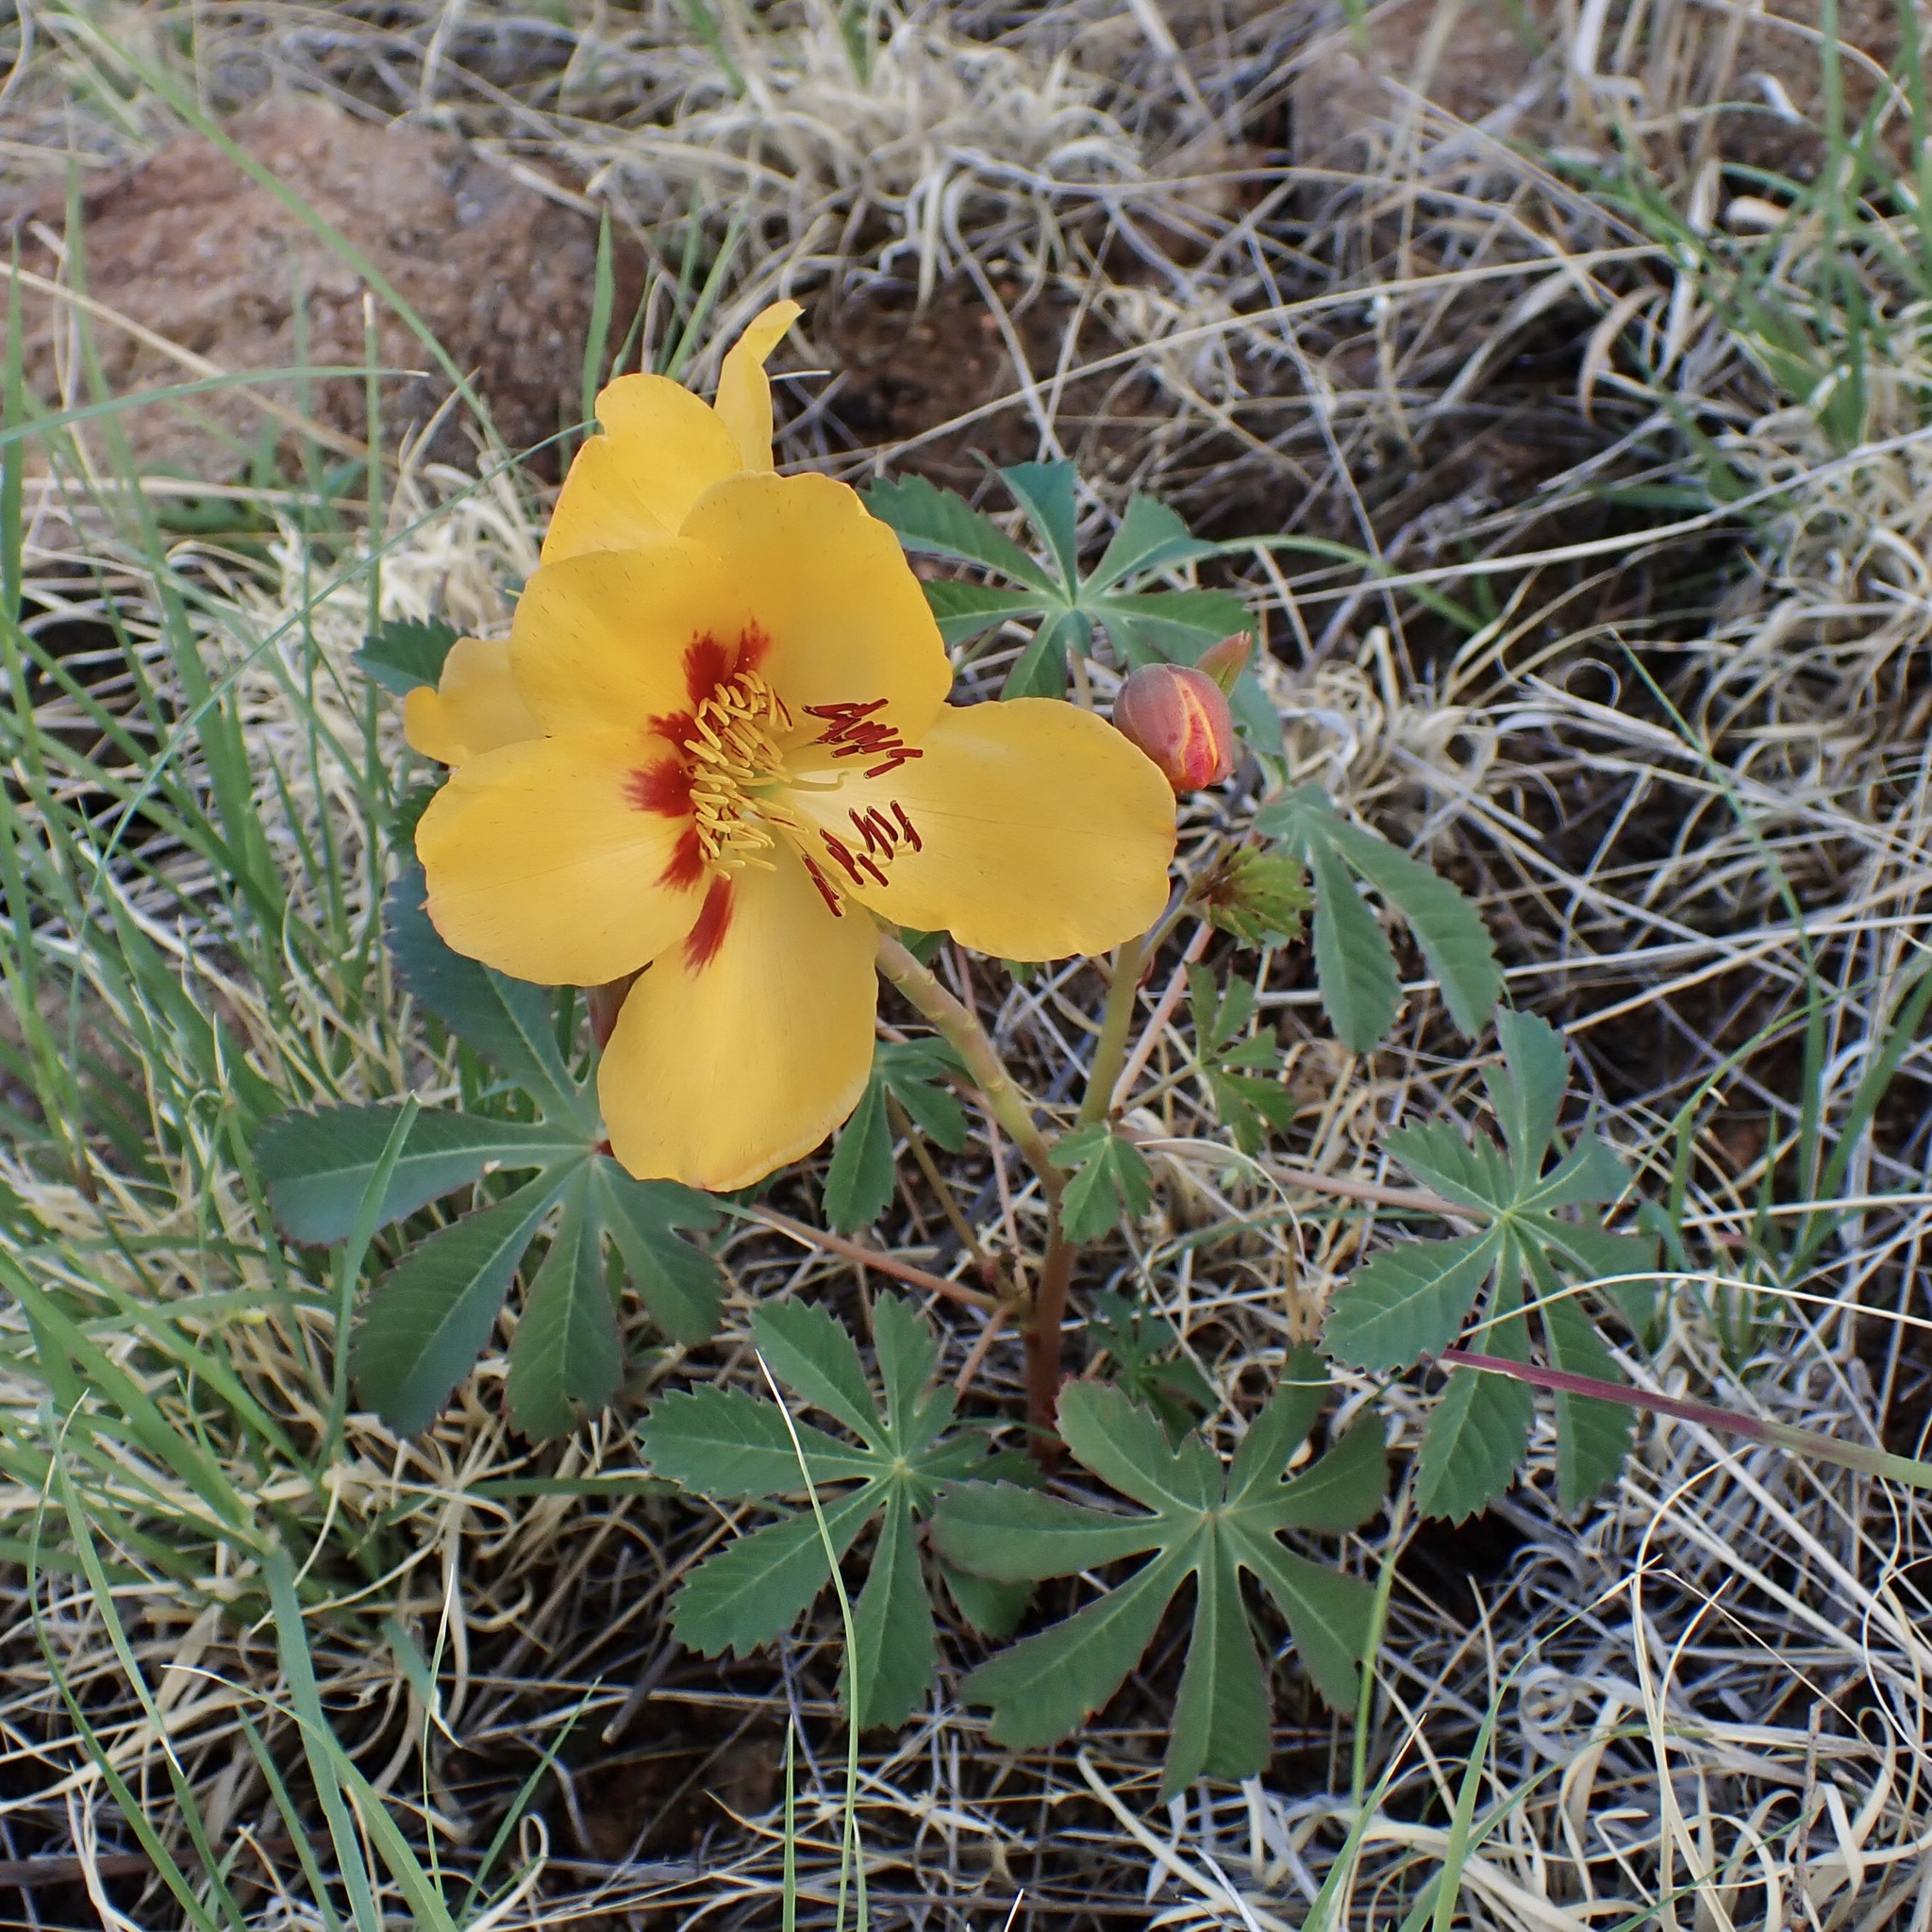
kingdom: Plantae
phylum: Tracheophyta
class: Magnoliopsida
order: Malvales
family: Cochlospermaceae
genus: Cochlospermum
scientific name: Cochlospermum palmatifidum
